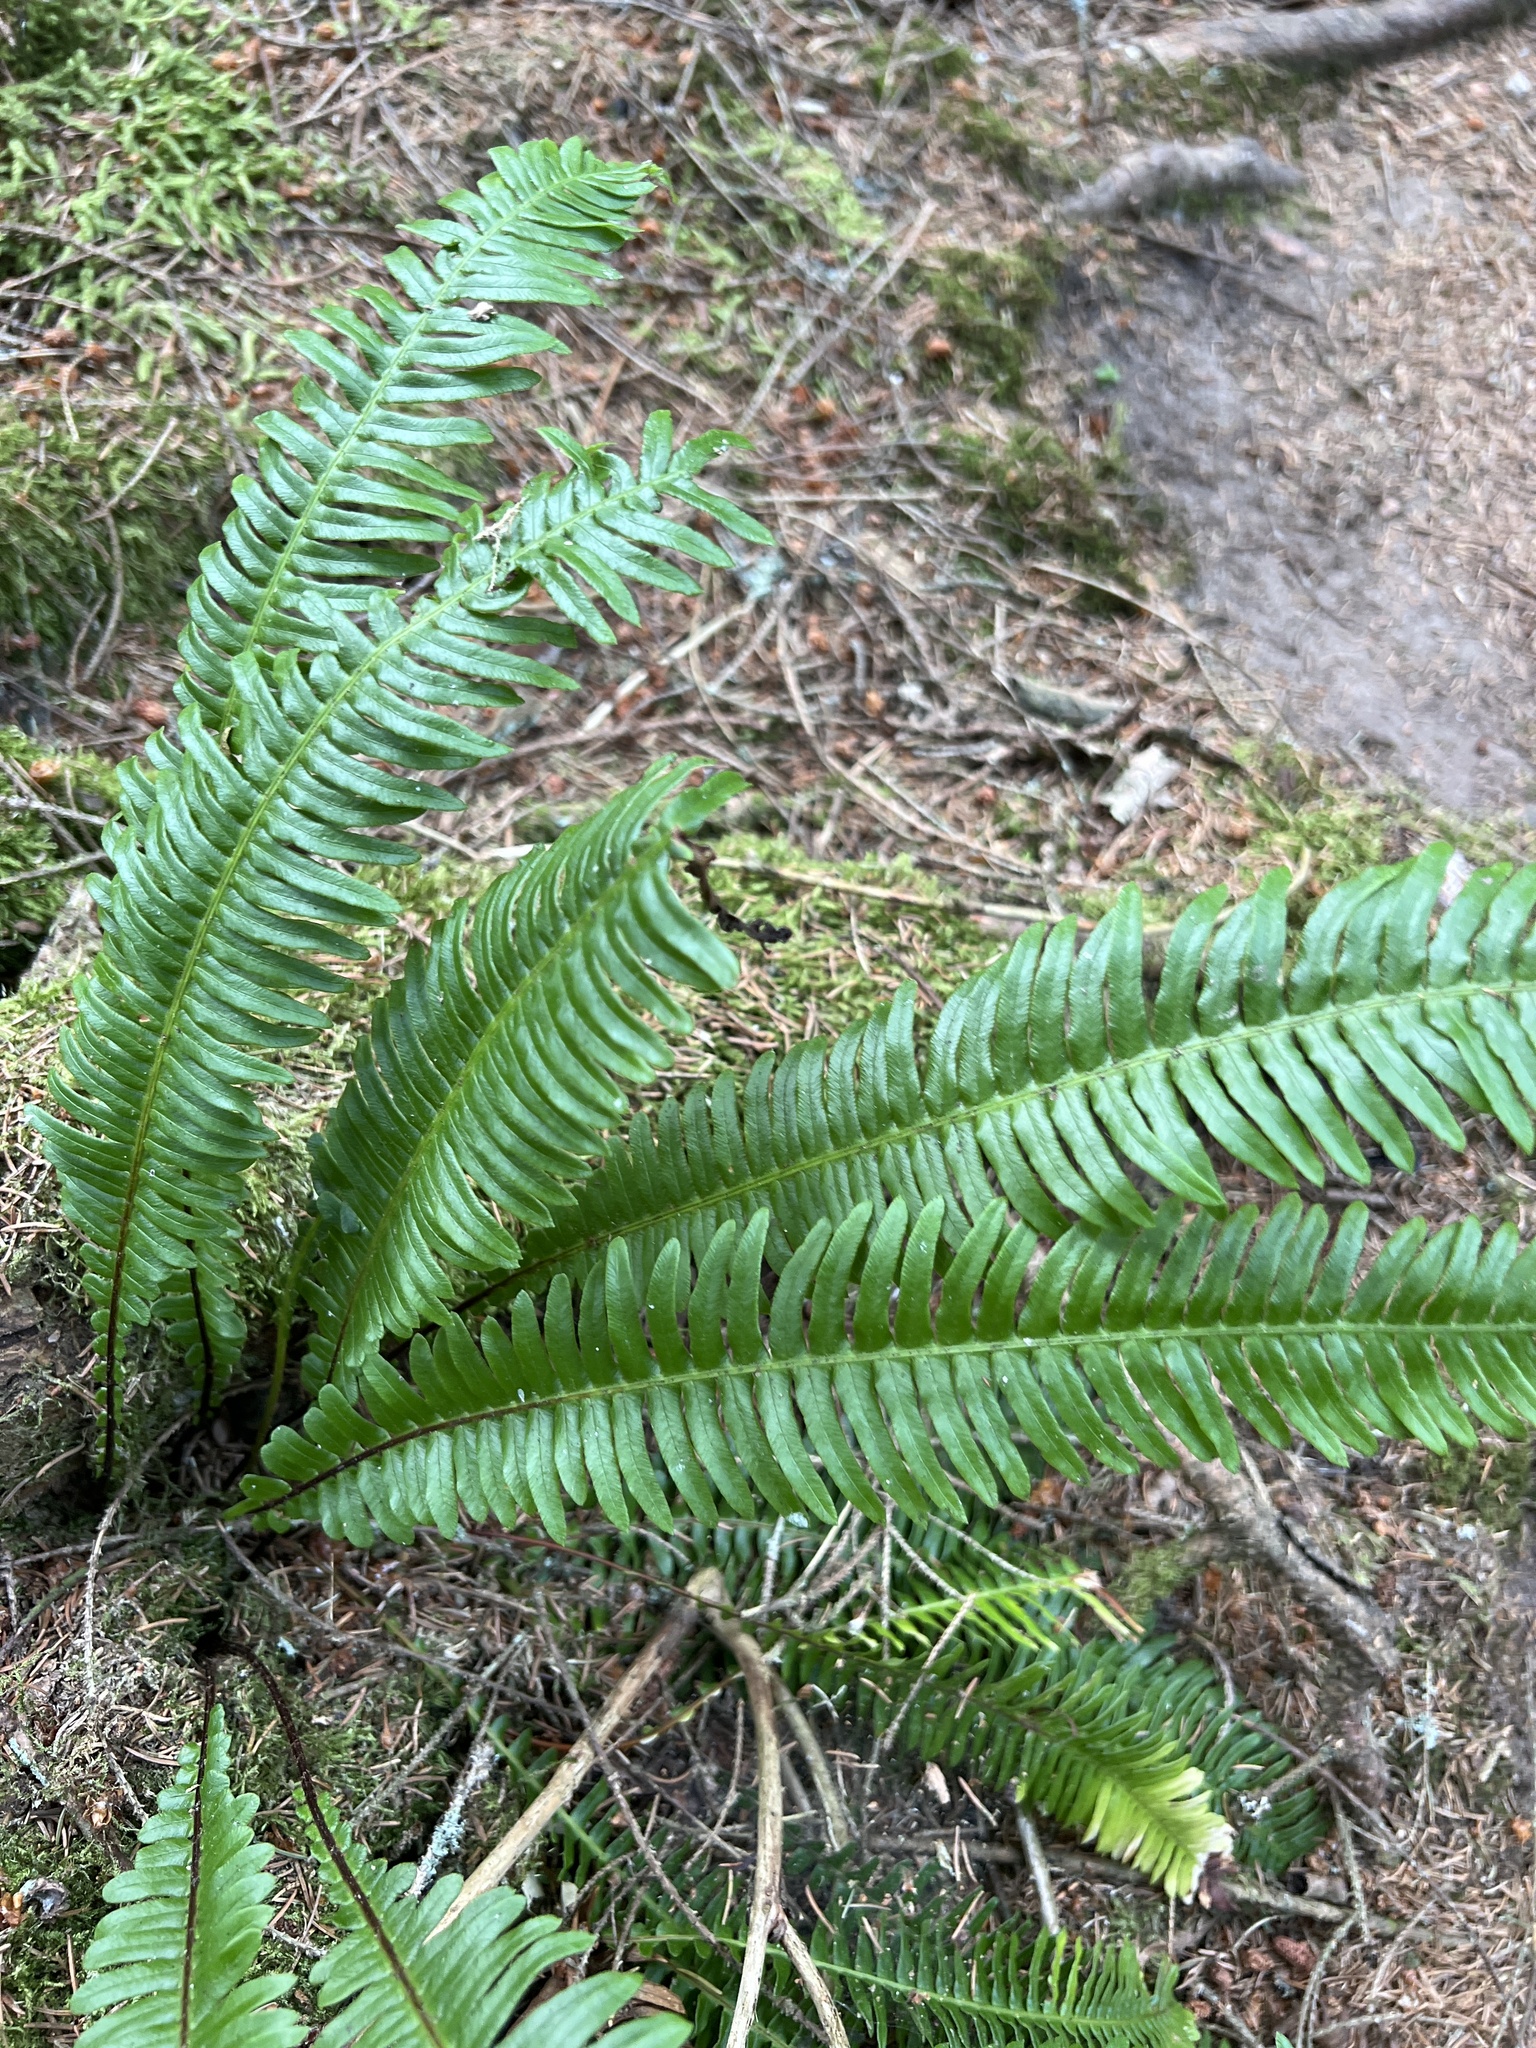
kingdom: Plantae
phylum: Tracheophyta
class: Polypodiopsida
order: Polypodiales
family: Blechnaceae
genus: Struthiopteris
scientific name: Struthiopteris spicant
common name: Deer fern
